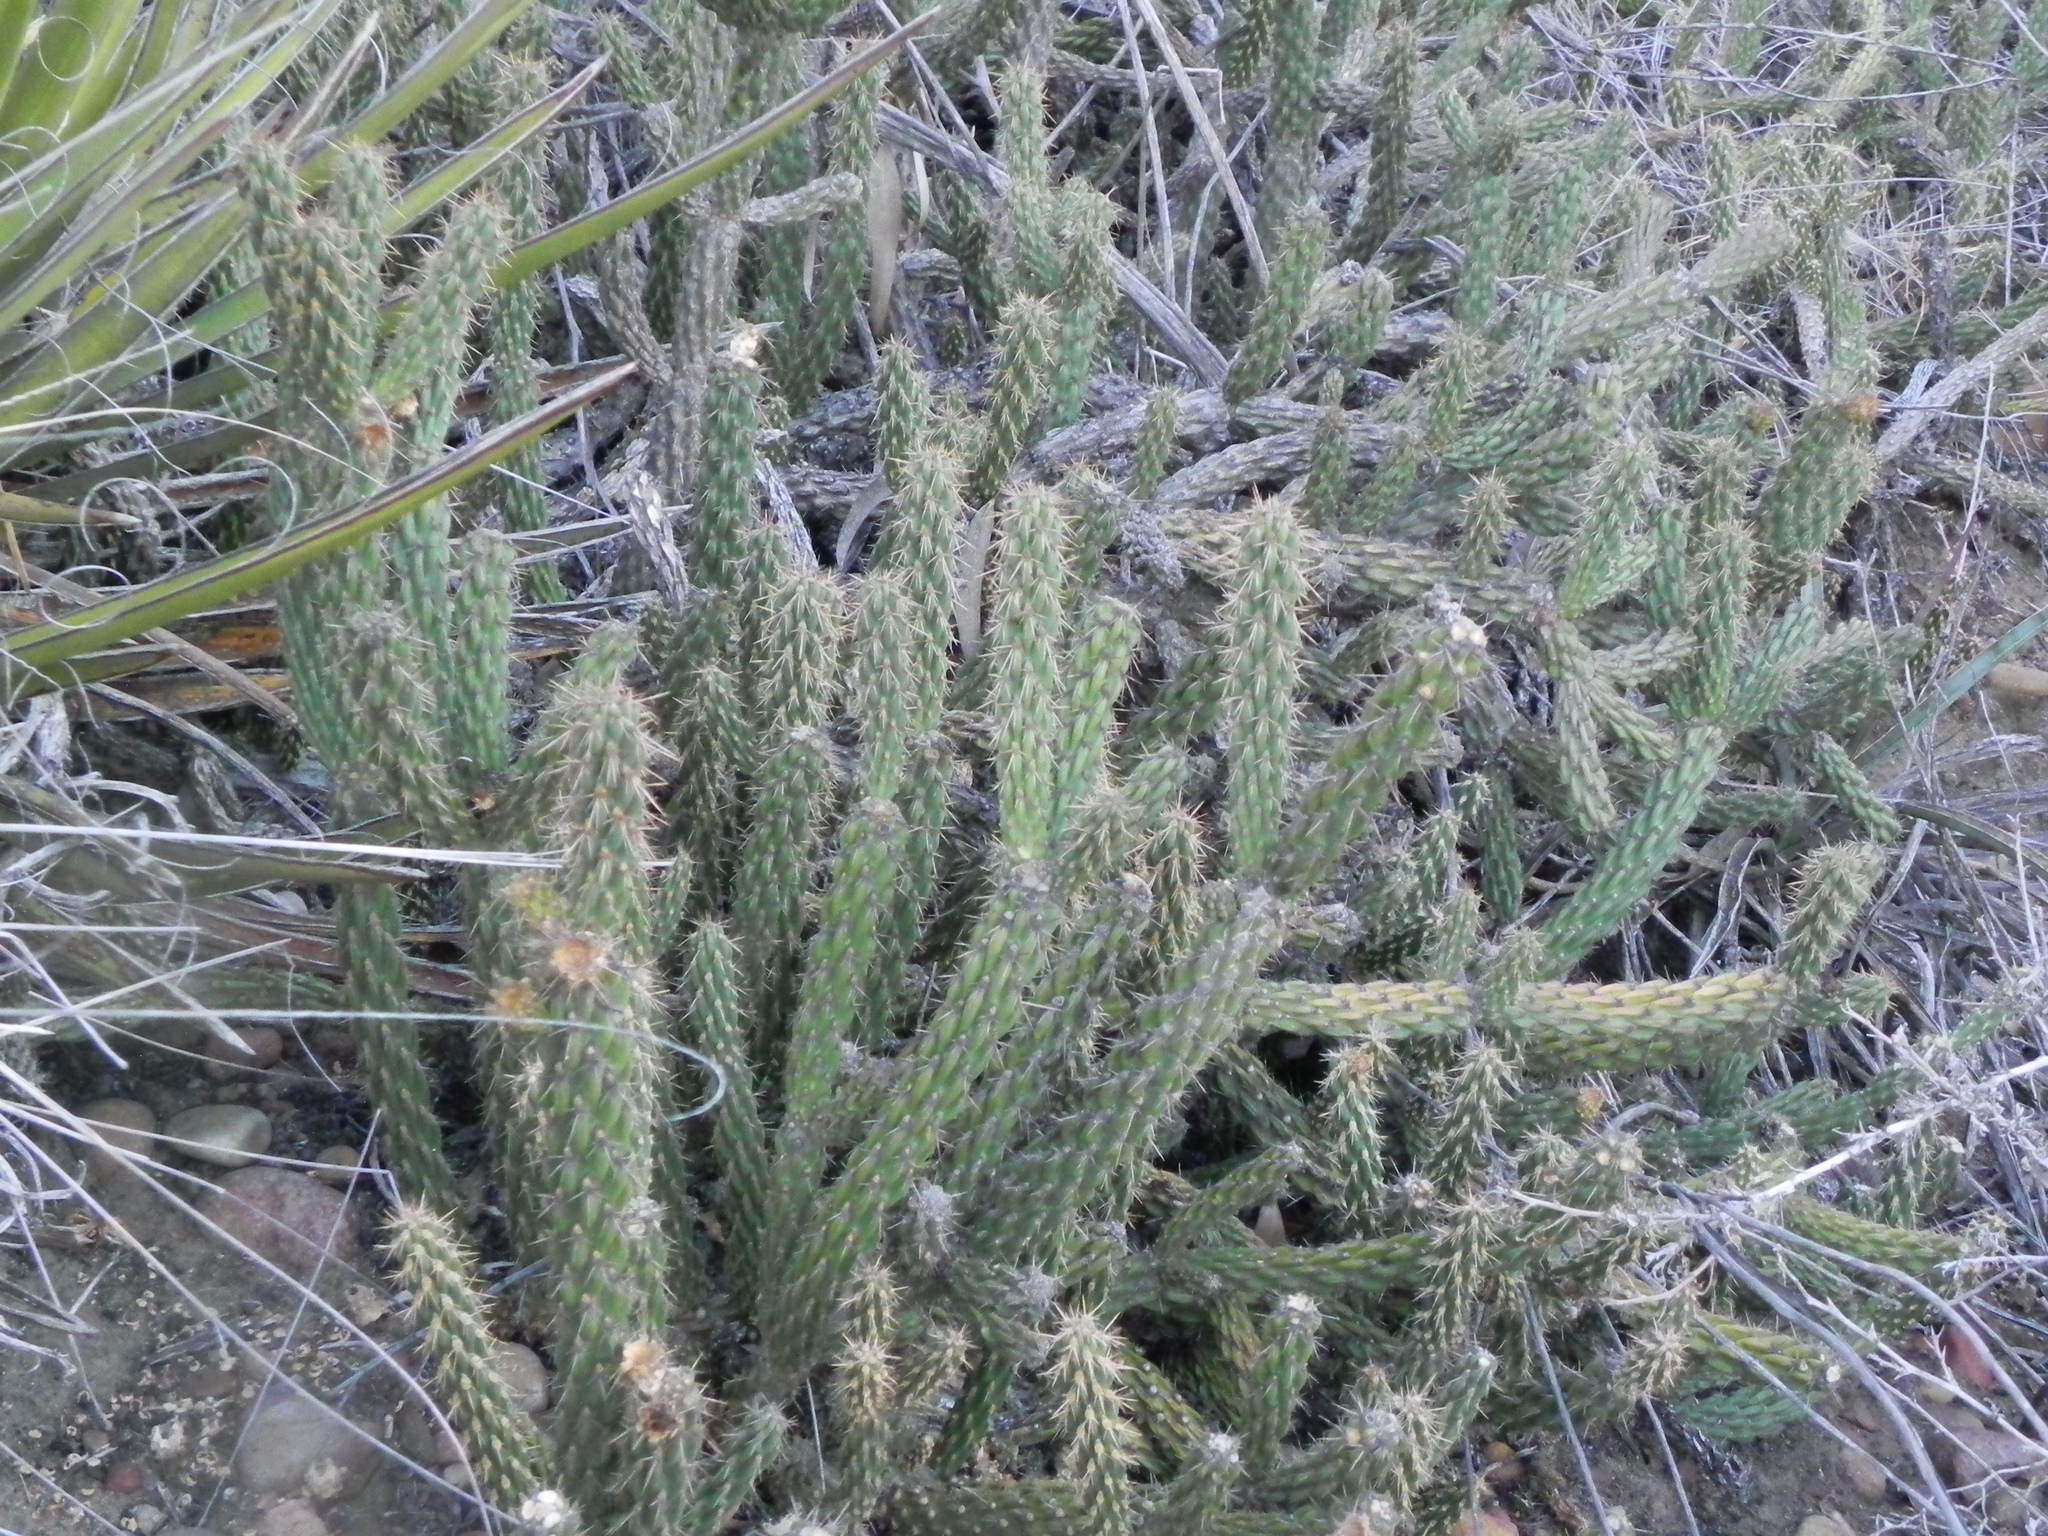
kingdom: Plantae
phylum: Tracheophyta
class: Magnoliopsida
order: Caryophyllales
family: Cactaceae
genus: Cylindropuntia
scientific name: Cylindropuntia californica
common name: Snake cholla
